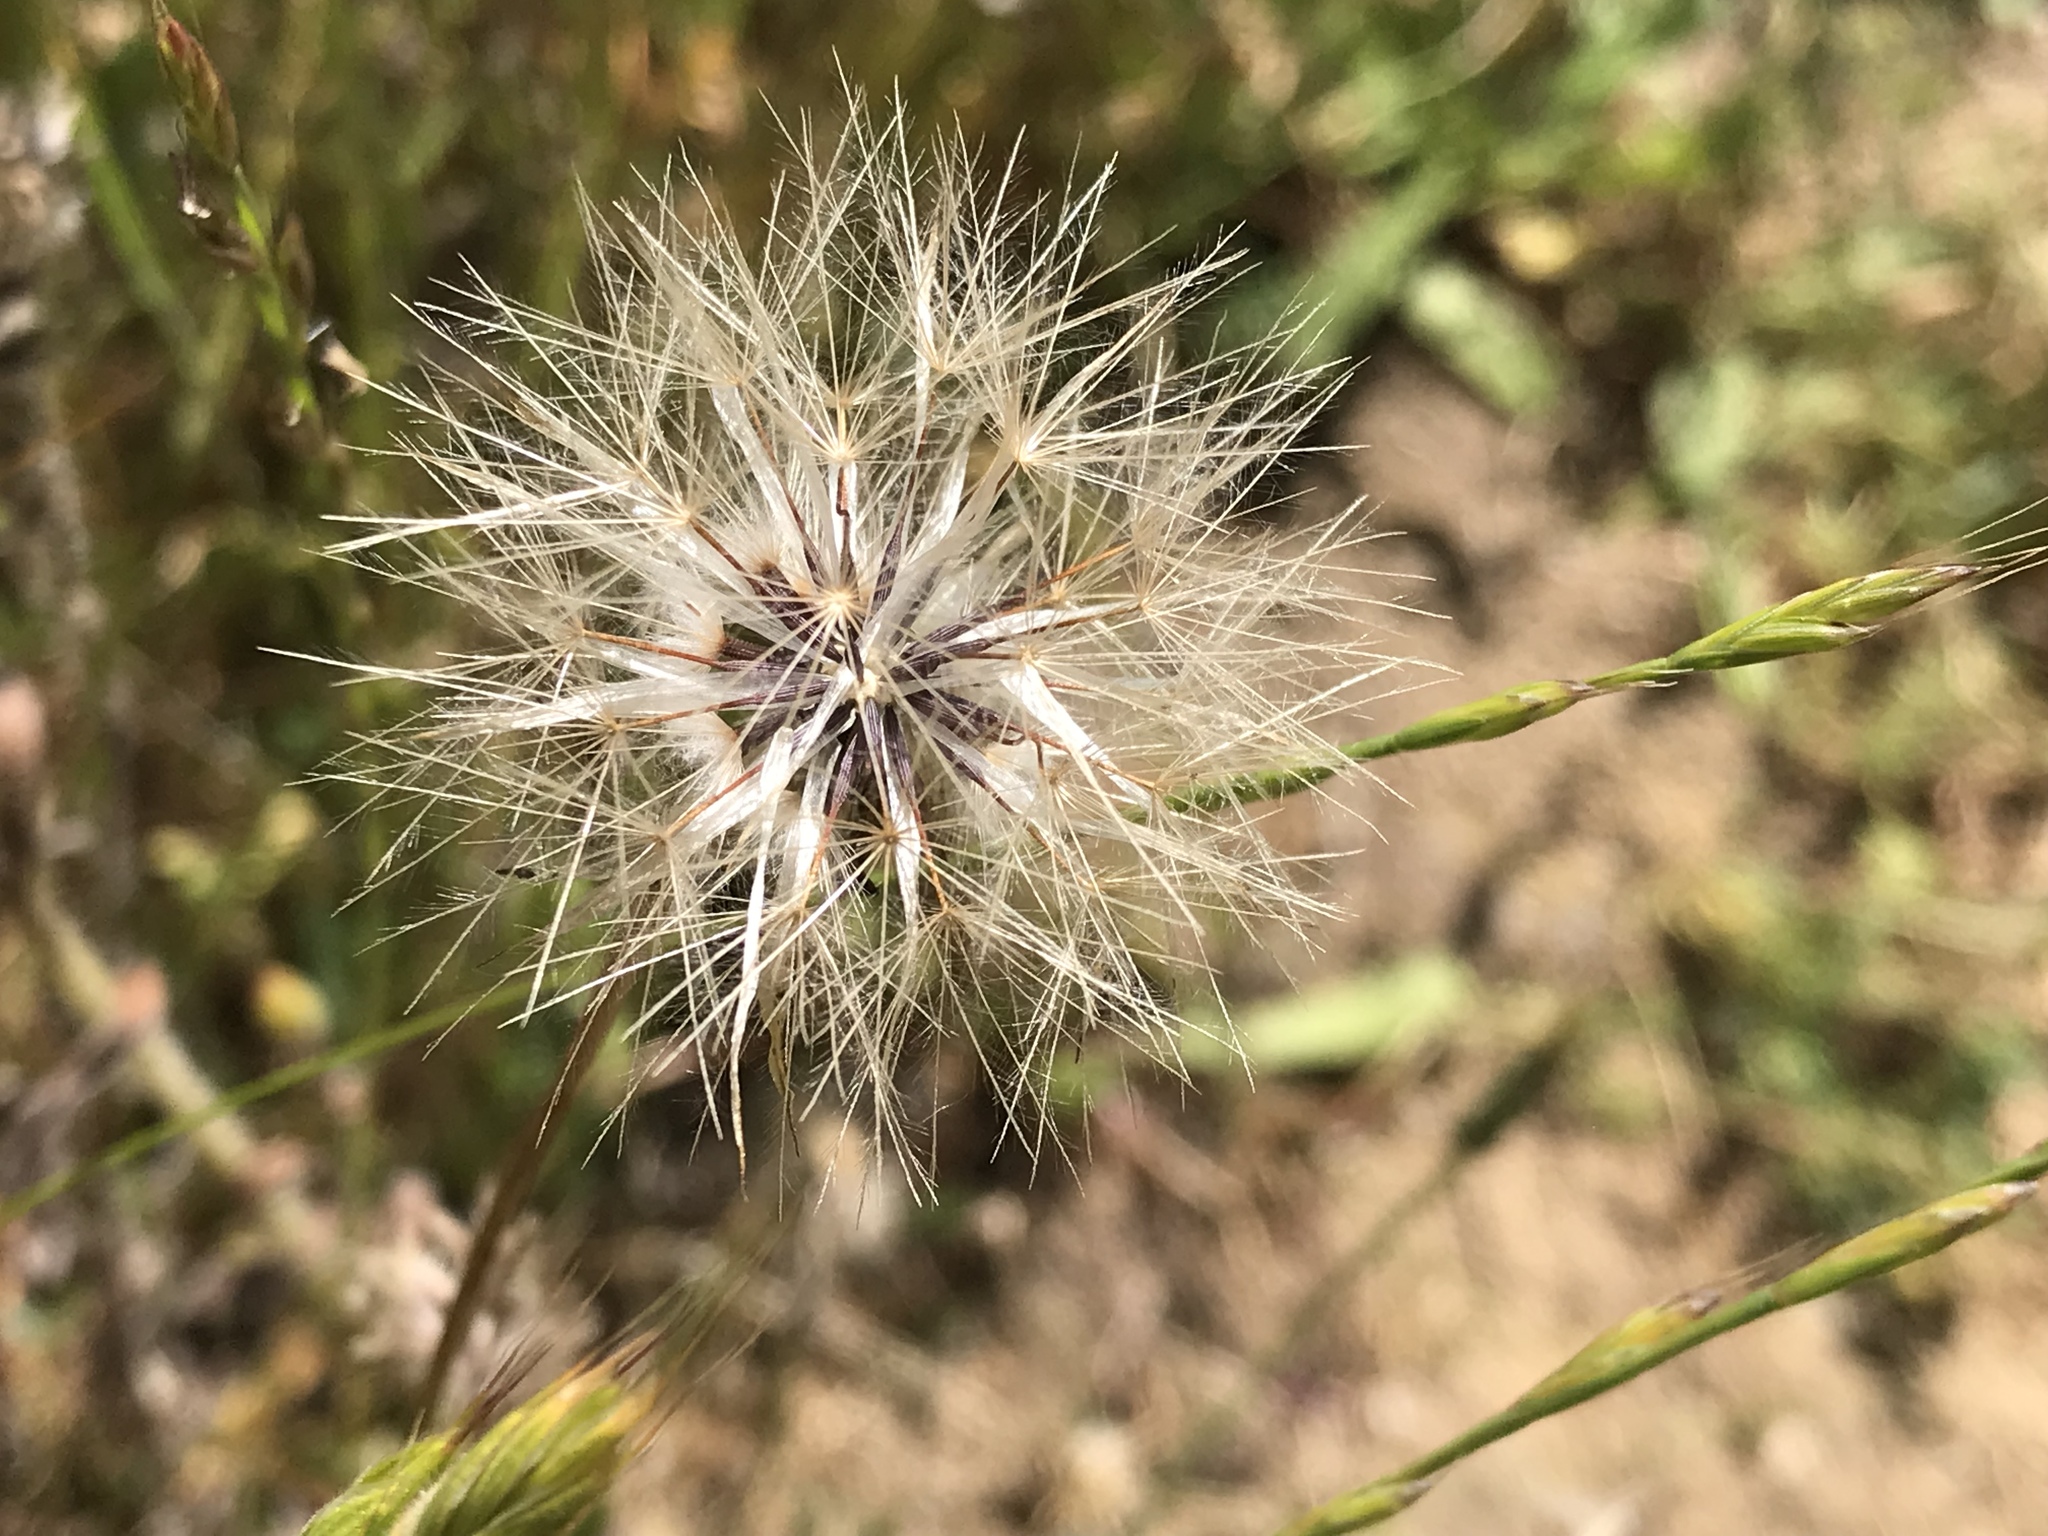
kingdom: Plantae
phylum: Tracheophyta
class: Magnoliopsida
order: Asterales
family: Asteraceae
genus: Hypochaeris
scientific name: Hypochaeris glabra
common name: Smooth catsear
